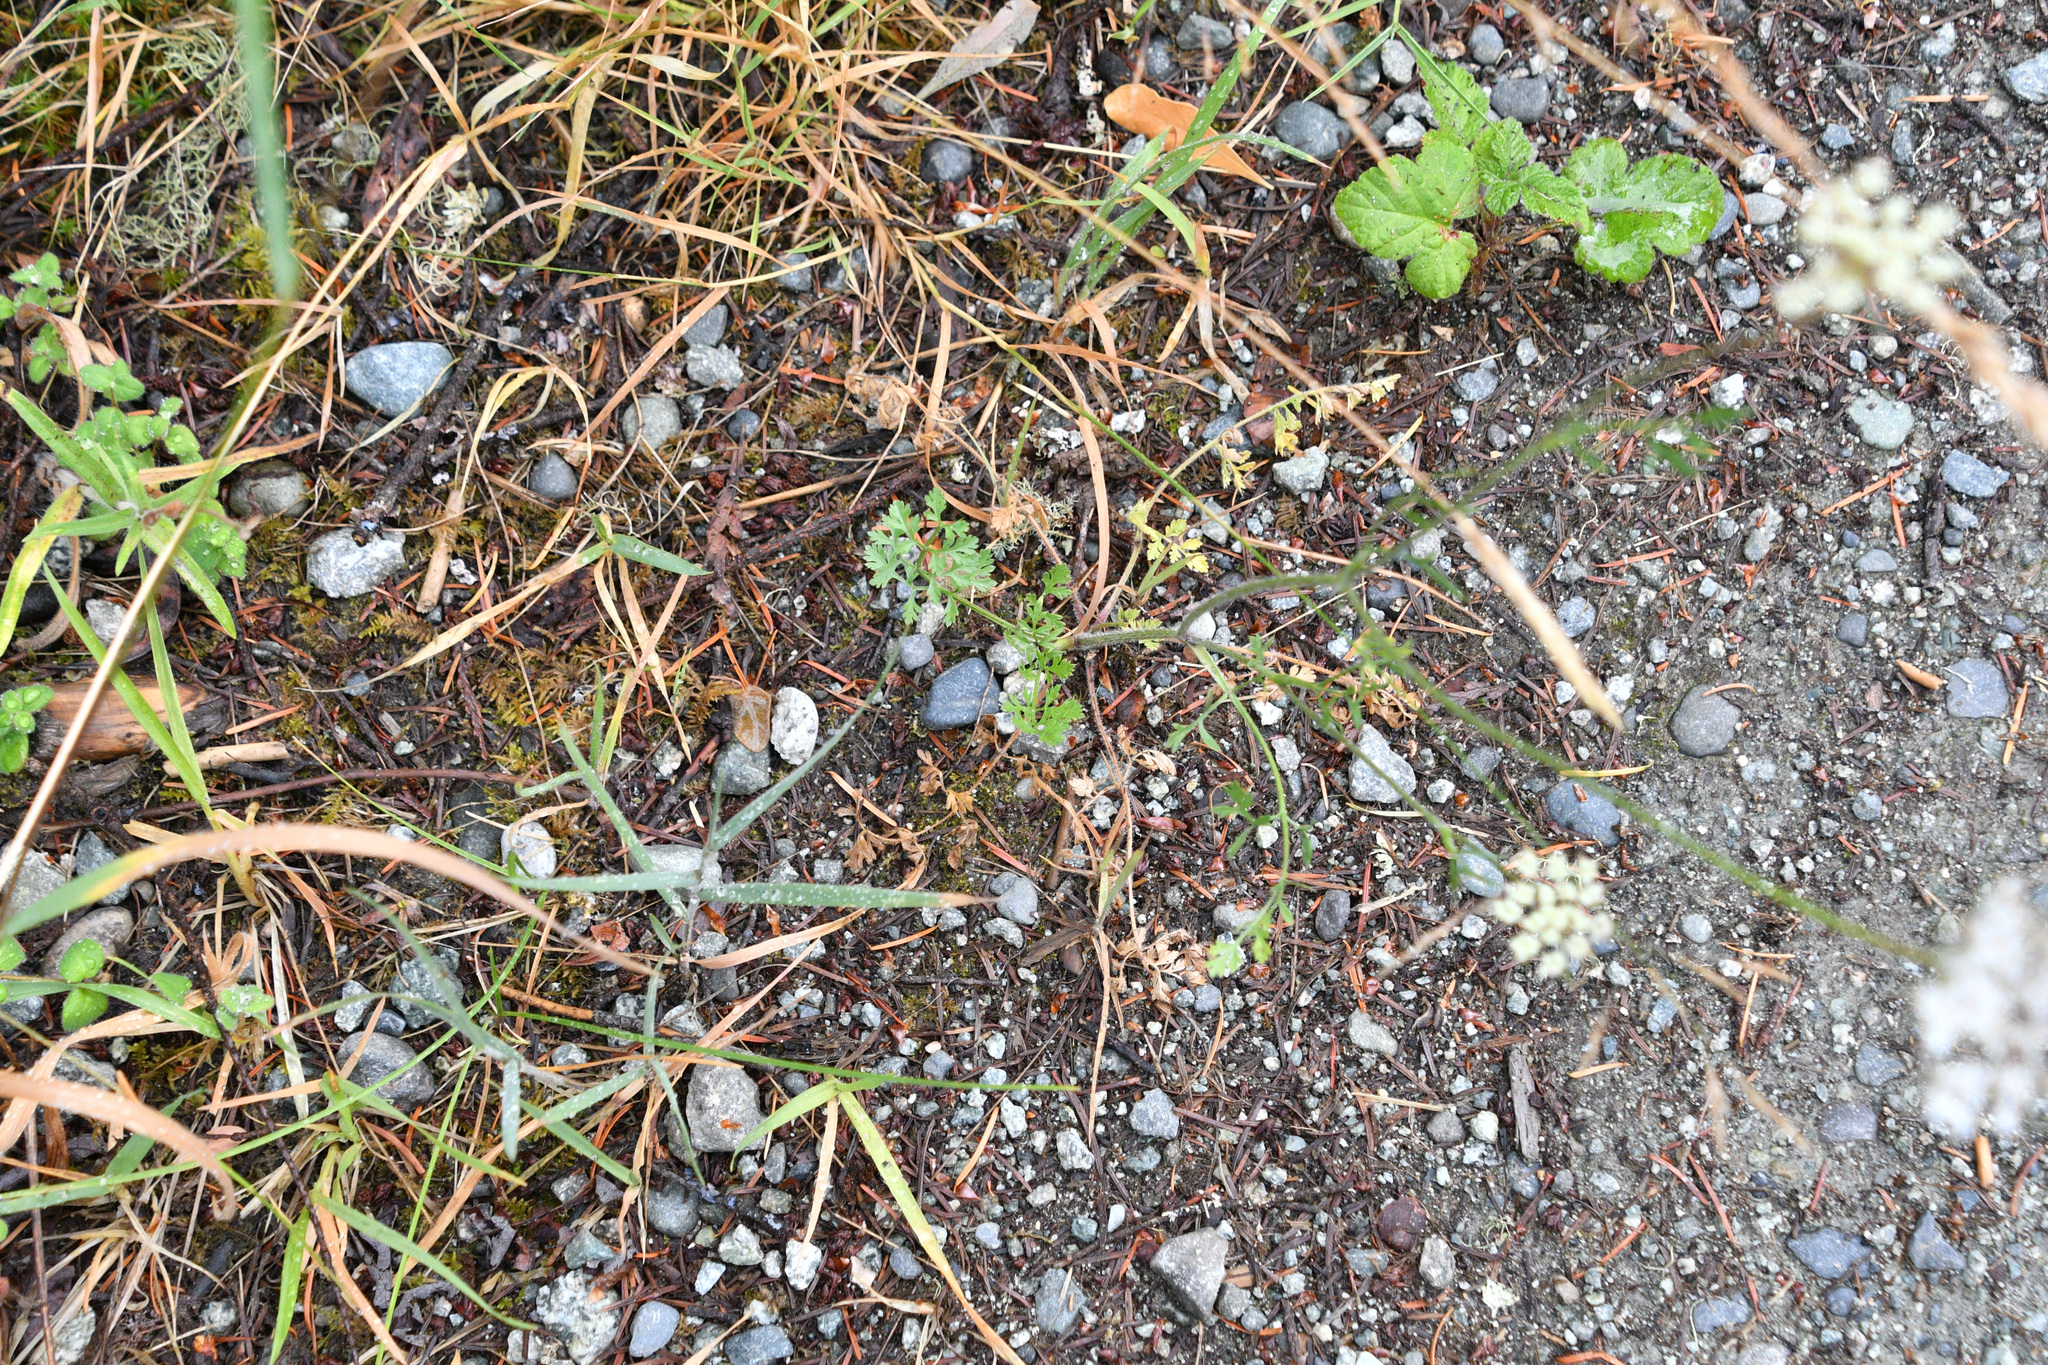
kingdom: Plantae
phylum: Tracheophyta
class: Magnoliopsida
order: Apiales
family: Apiaceae
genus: Daucus
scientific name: Daucus carota
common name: Wild carrot
